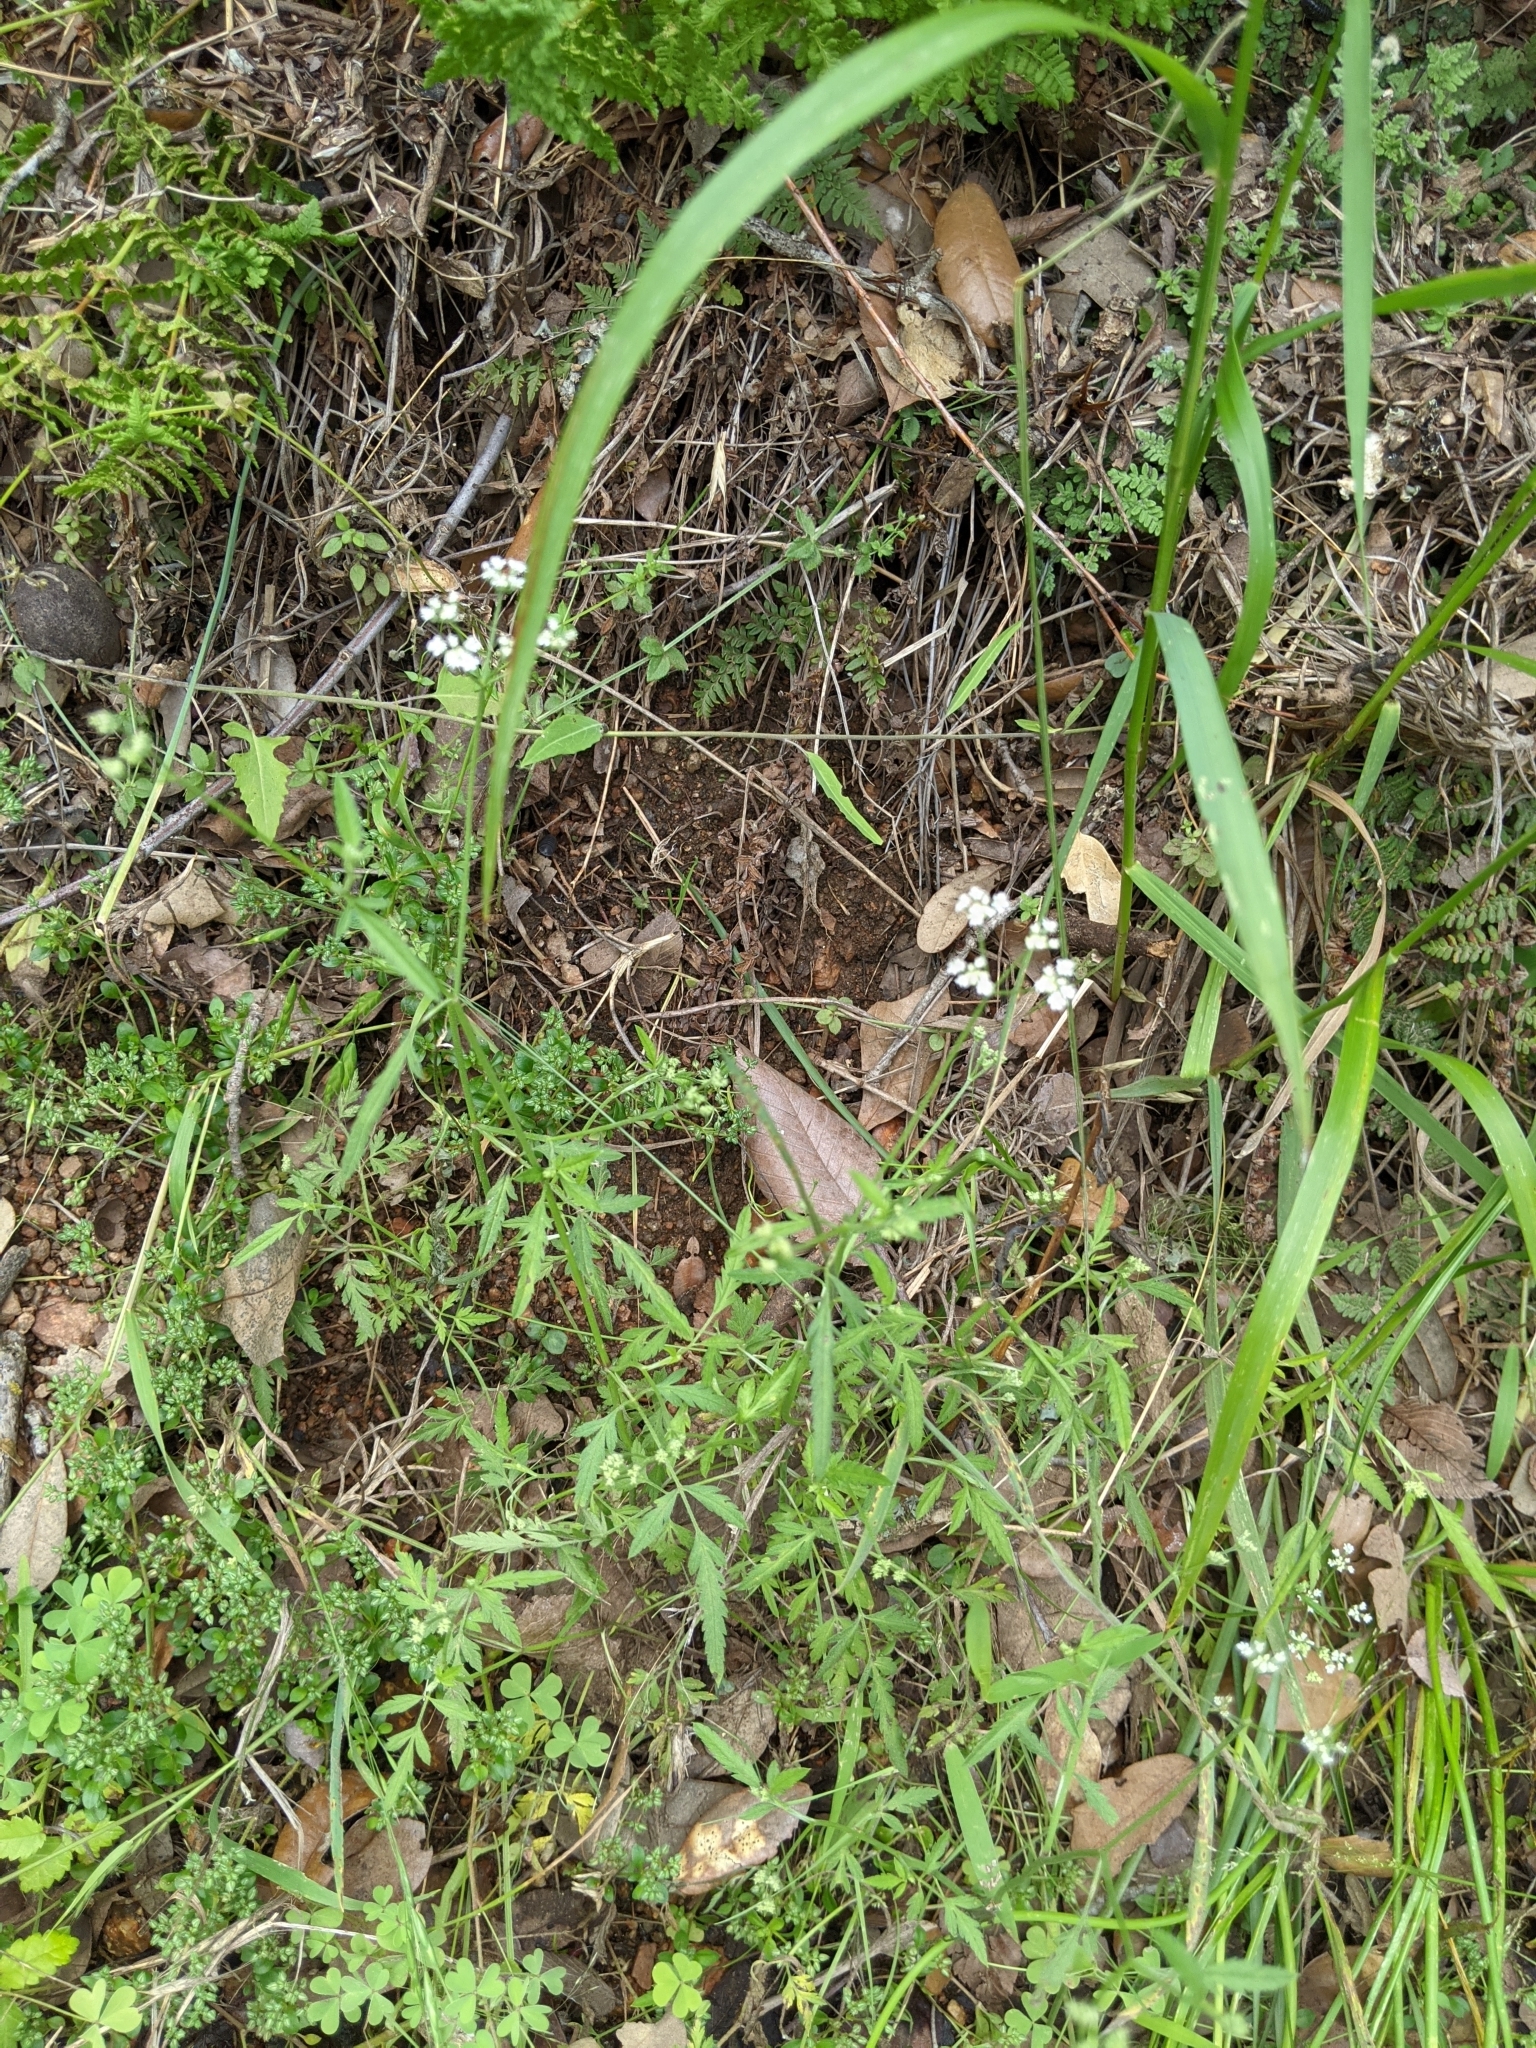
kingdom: Plantae
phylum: Tracheophyta
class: Magnoliopsida
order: Apiales
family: Apiaceae
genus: Torilis
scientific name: Torilis arvensis
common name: Spreading hedge-parsley
